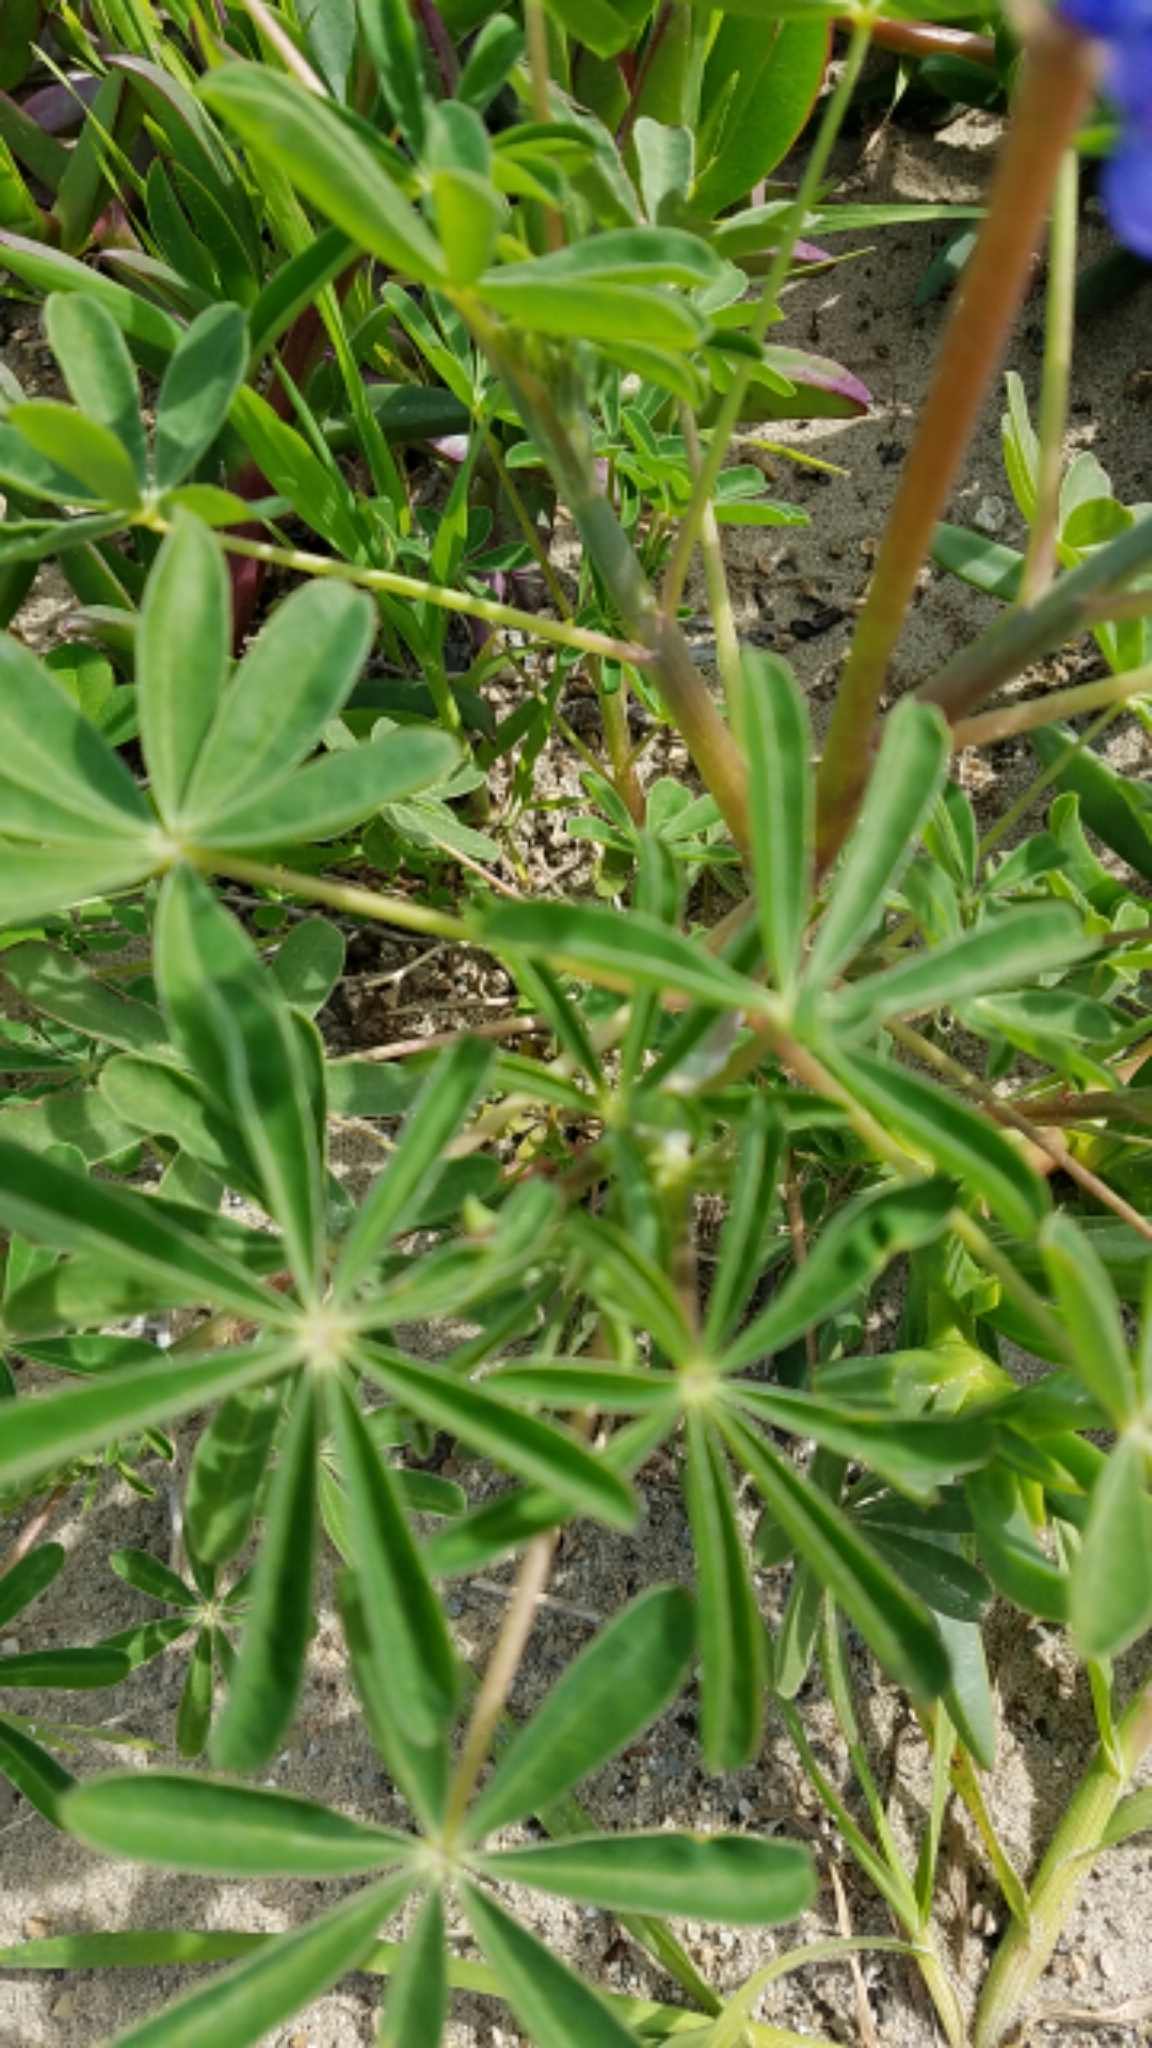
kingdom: Plantae
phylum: Tracheophyta
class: Magnoliopsida
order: Fabales
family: Fabaceae
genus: Lupinus
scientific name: Lupinus succulentus
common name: Arroyo lupine
